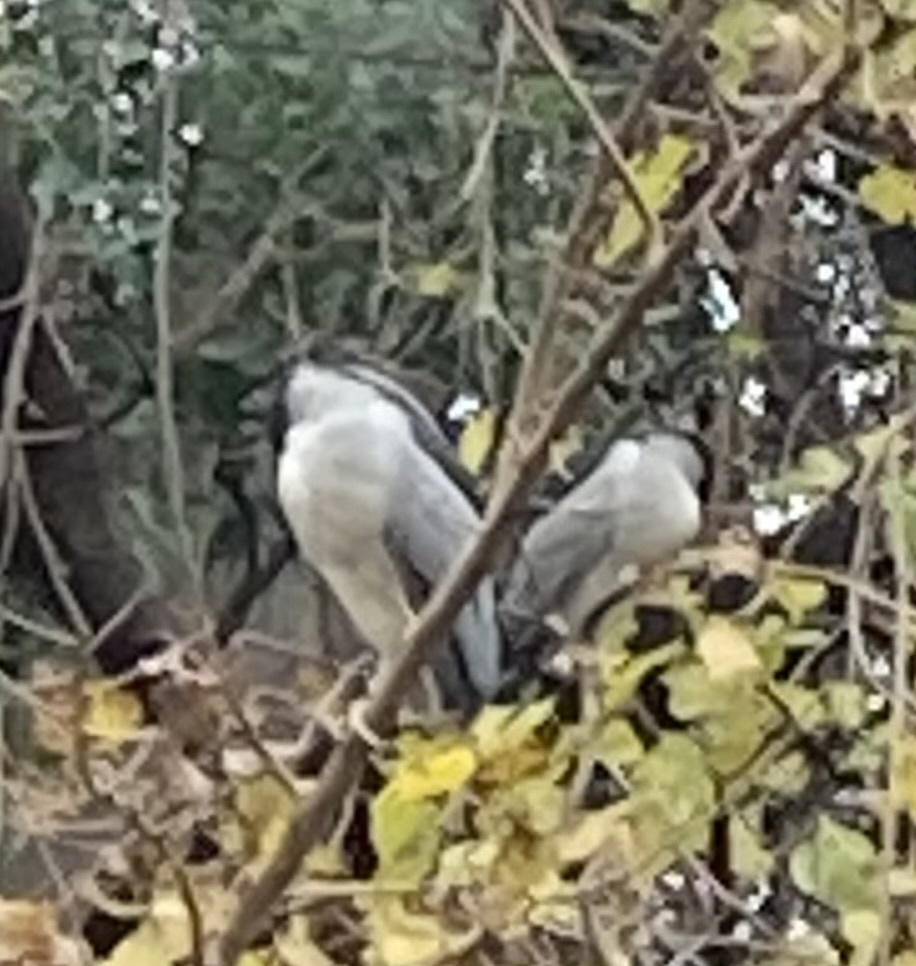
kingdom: Animalia
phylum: Chordata
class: Aves
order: Pelecaniformes
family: Ardeidae
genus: Nycticorax
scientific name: Nycticorax nycticorax
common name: Black-crowned night heron
